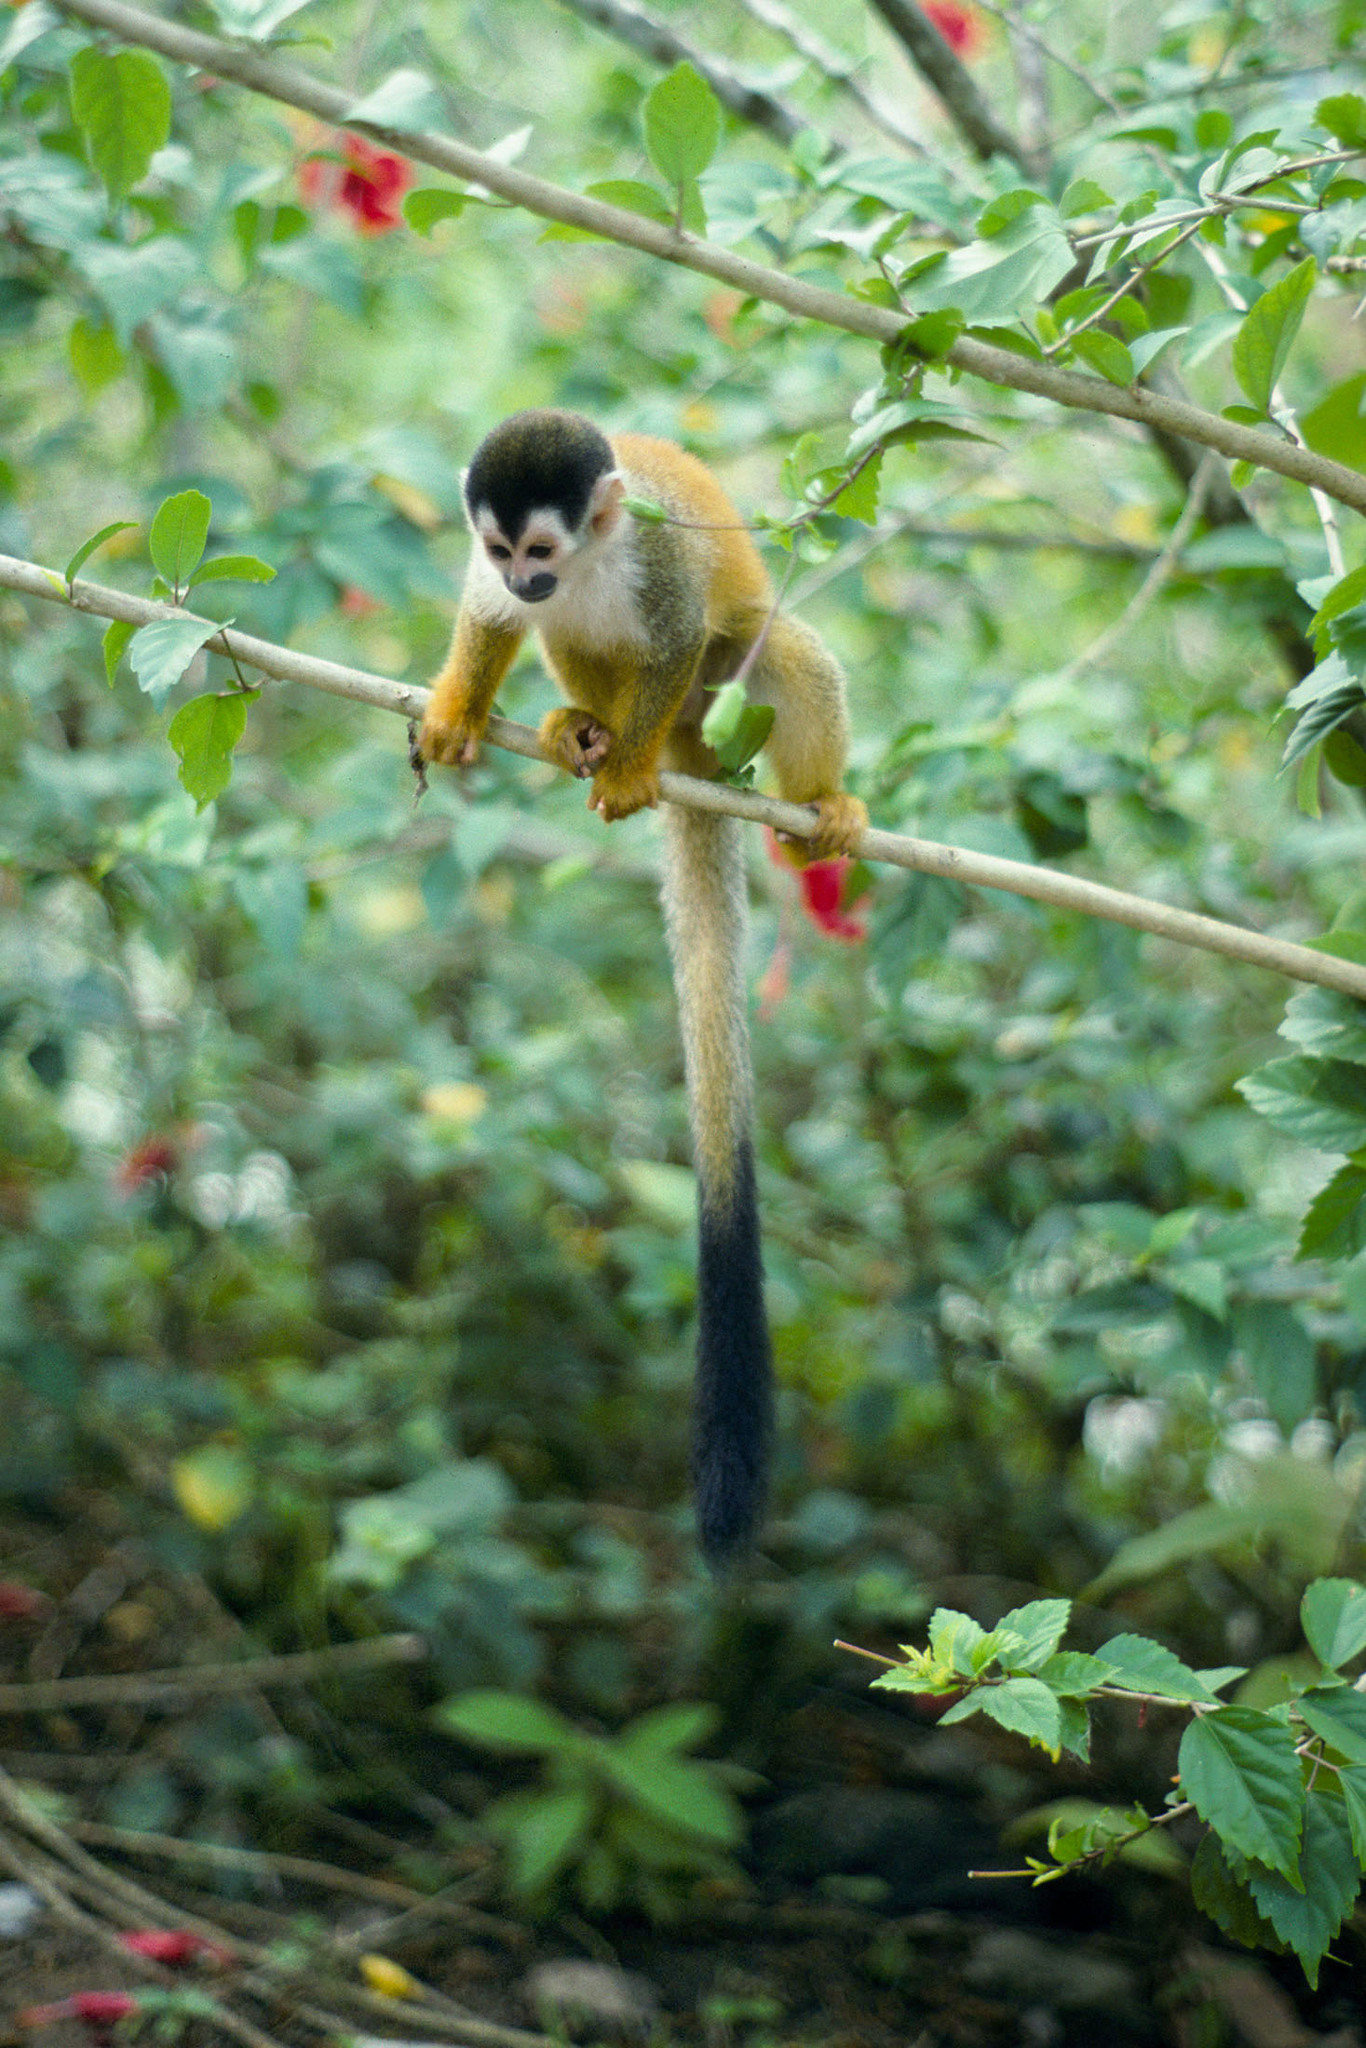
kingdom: Animalia
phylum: Chordata
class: Mammalia
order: Primates
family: Cebidae
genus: Saimiri
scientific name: Saimiri oerstedii
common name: Central american squirrel monkey
